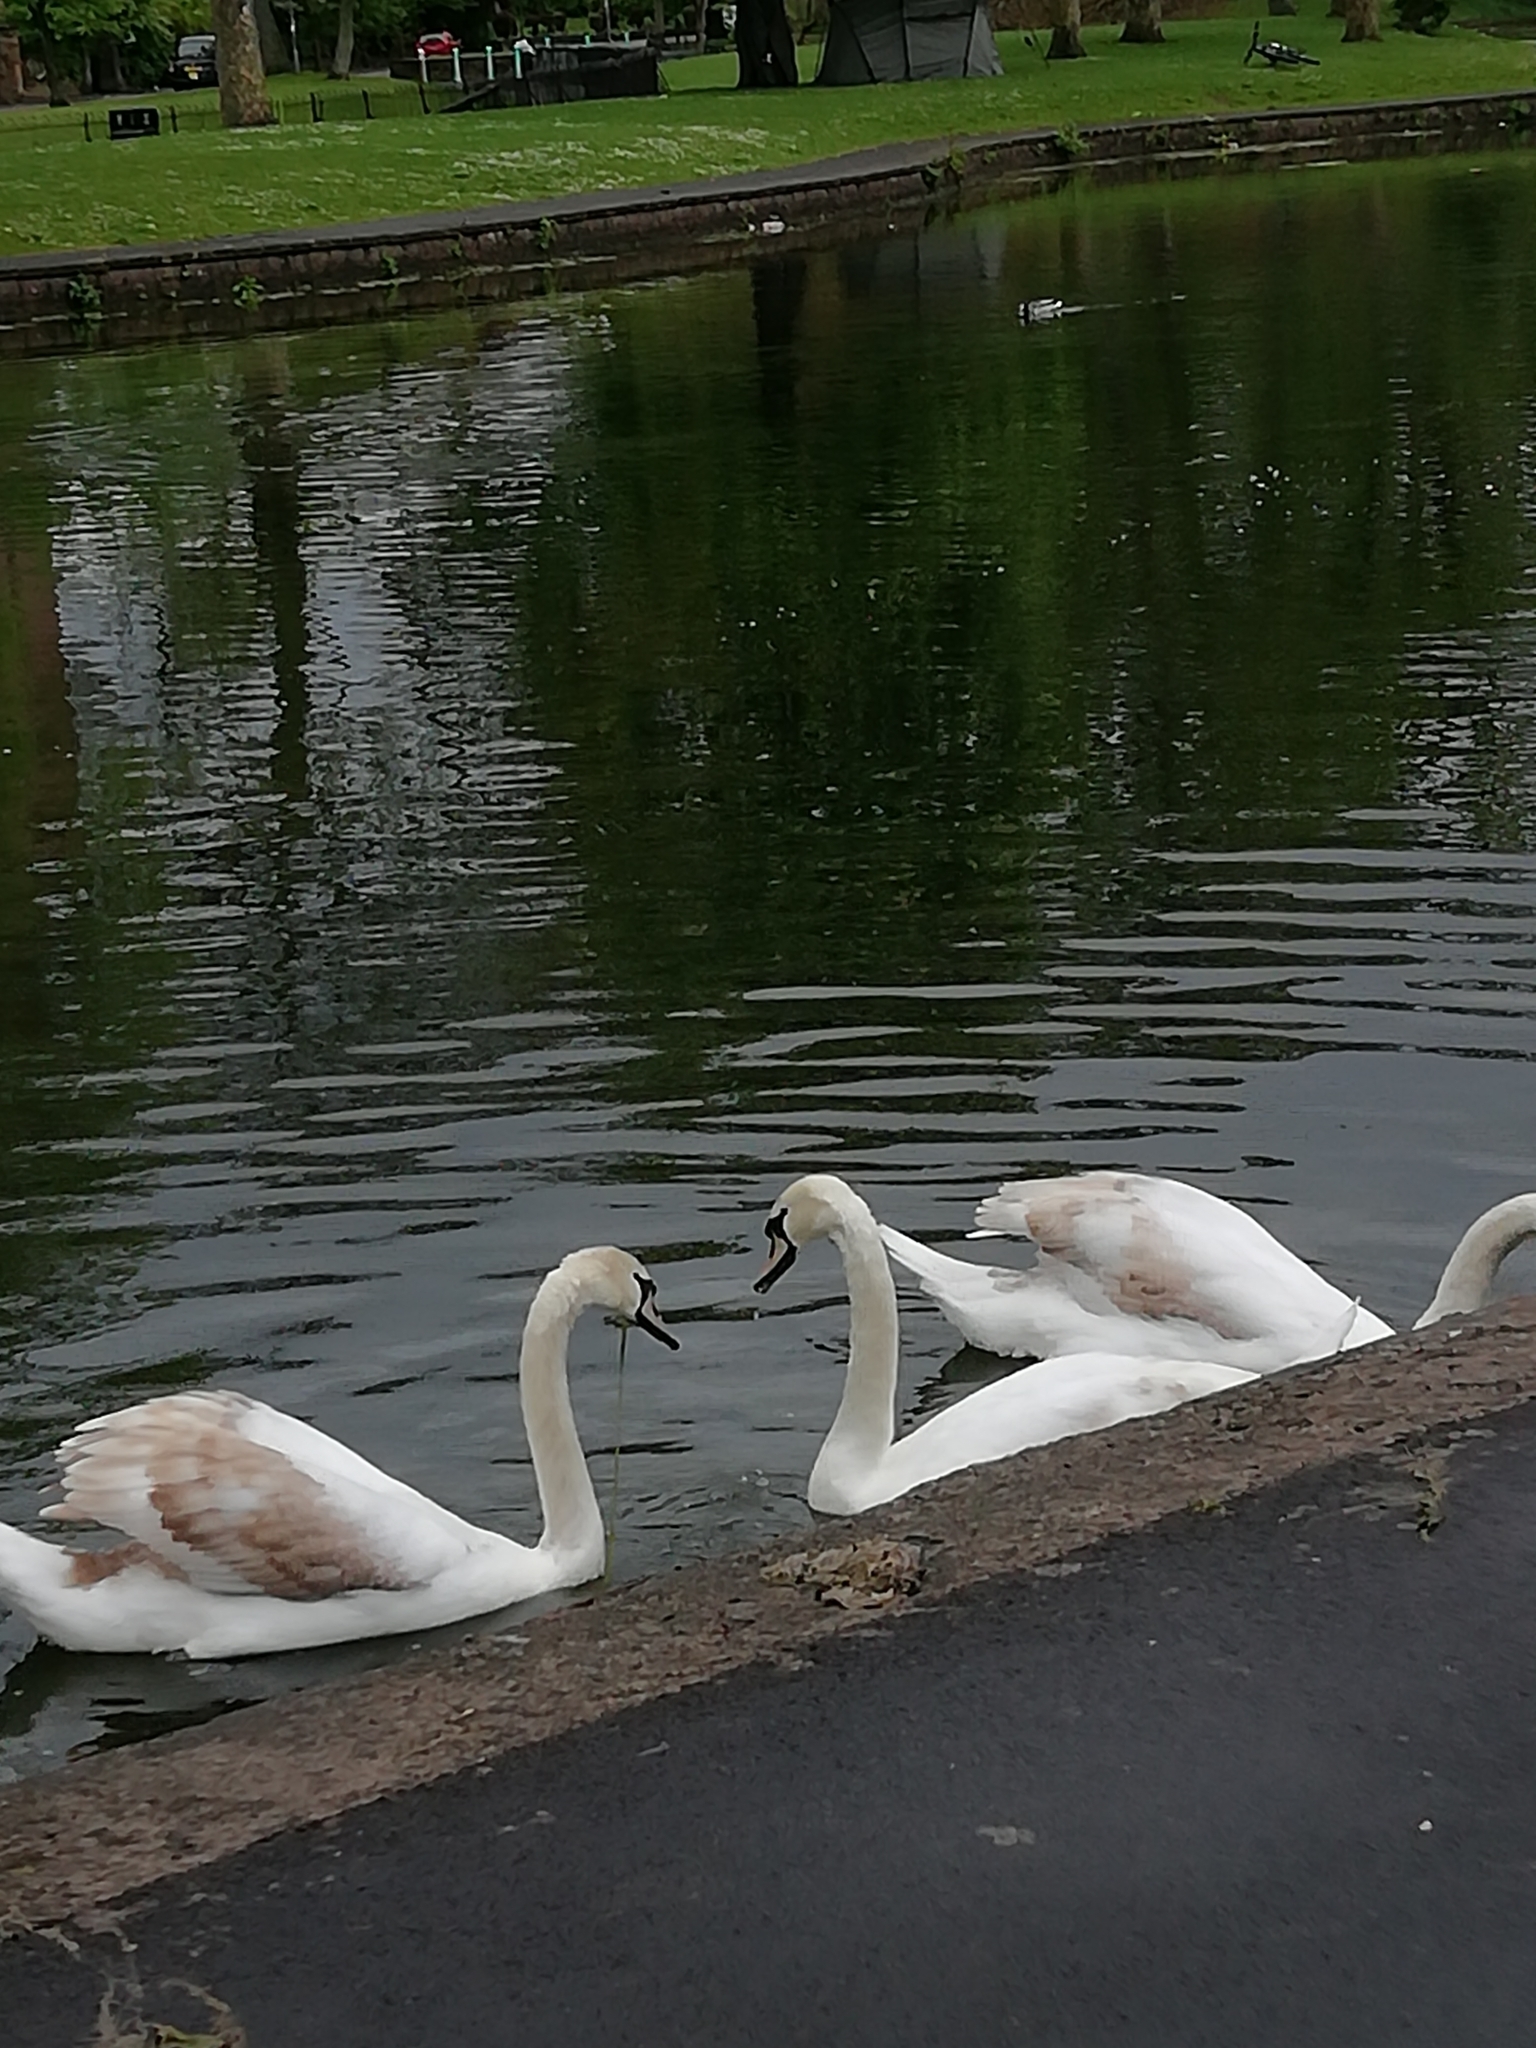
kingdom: Animalia
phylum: Chordata
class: Aves
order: Anseriformes
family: Anatidae
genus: Cygnus
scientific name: Cygnus olor
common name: Mute swan
